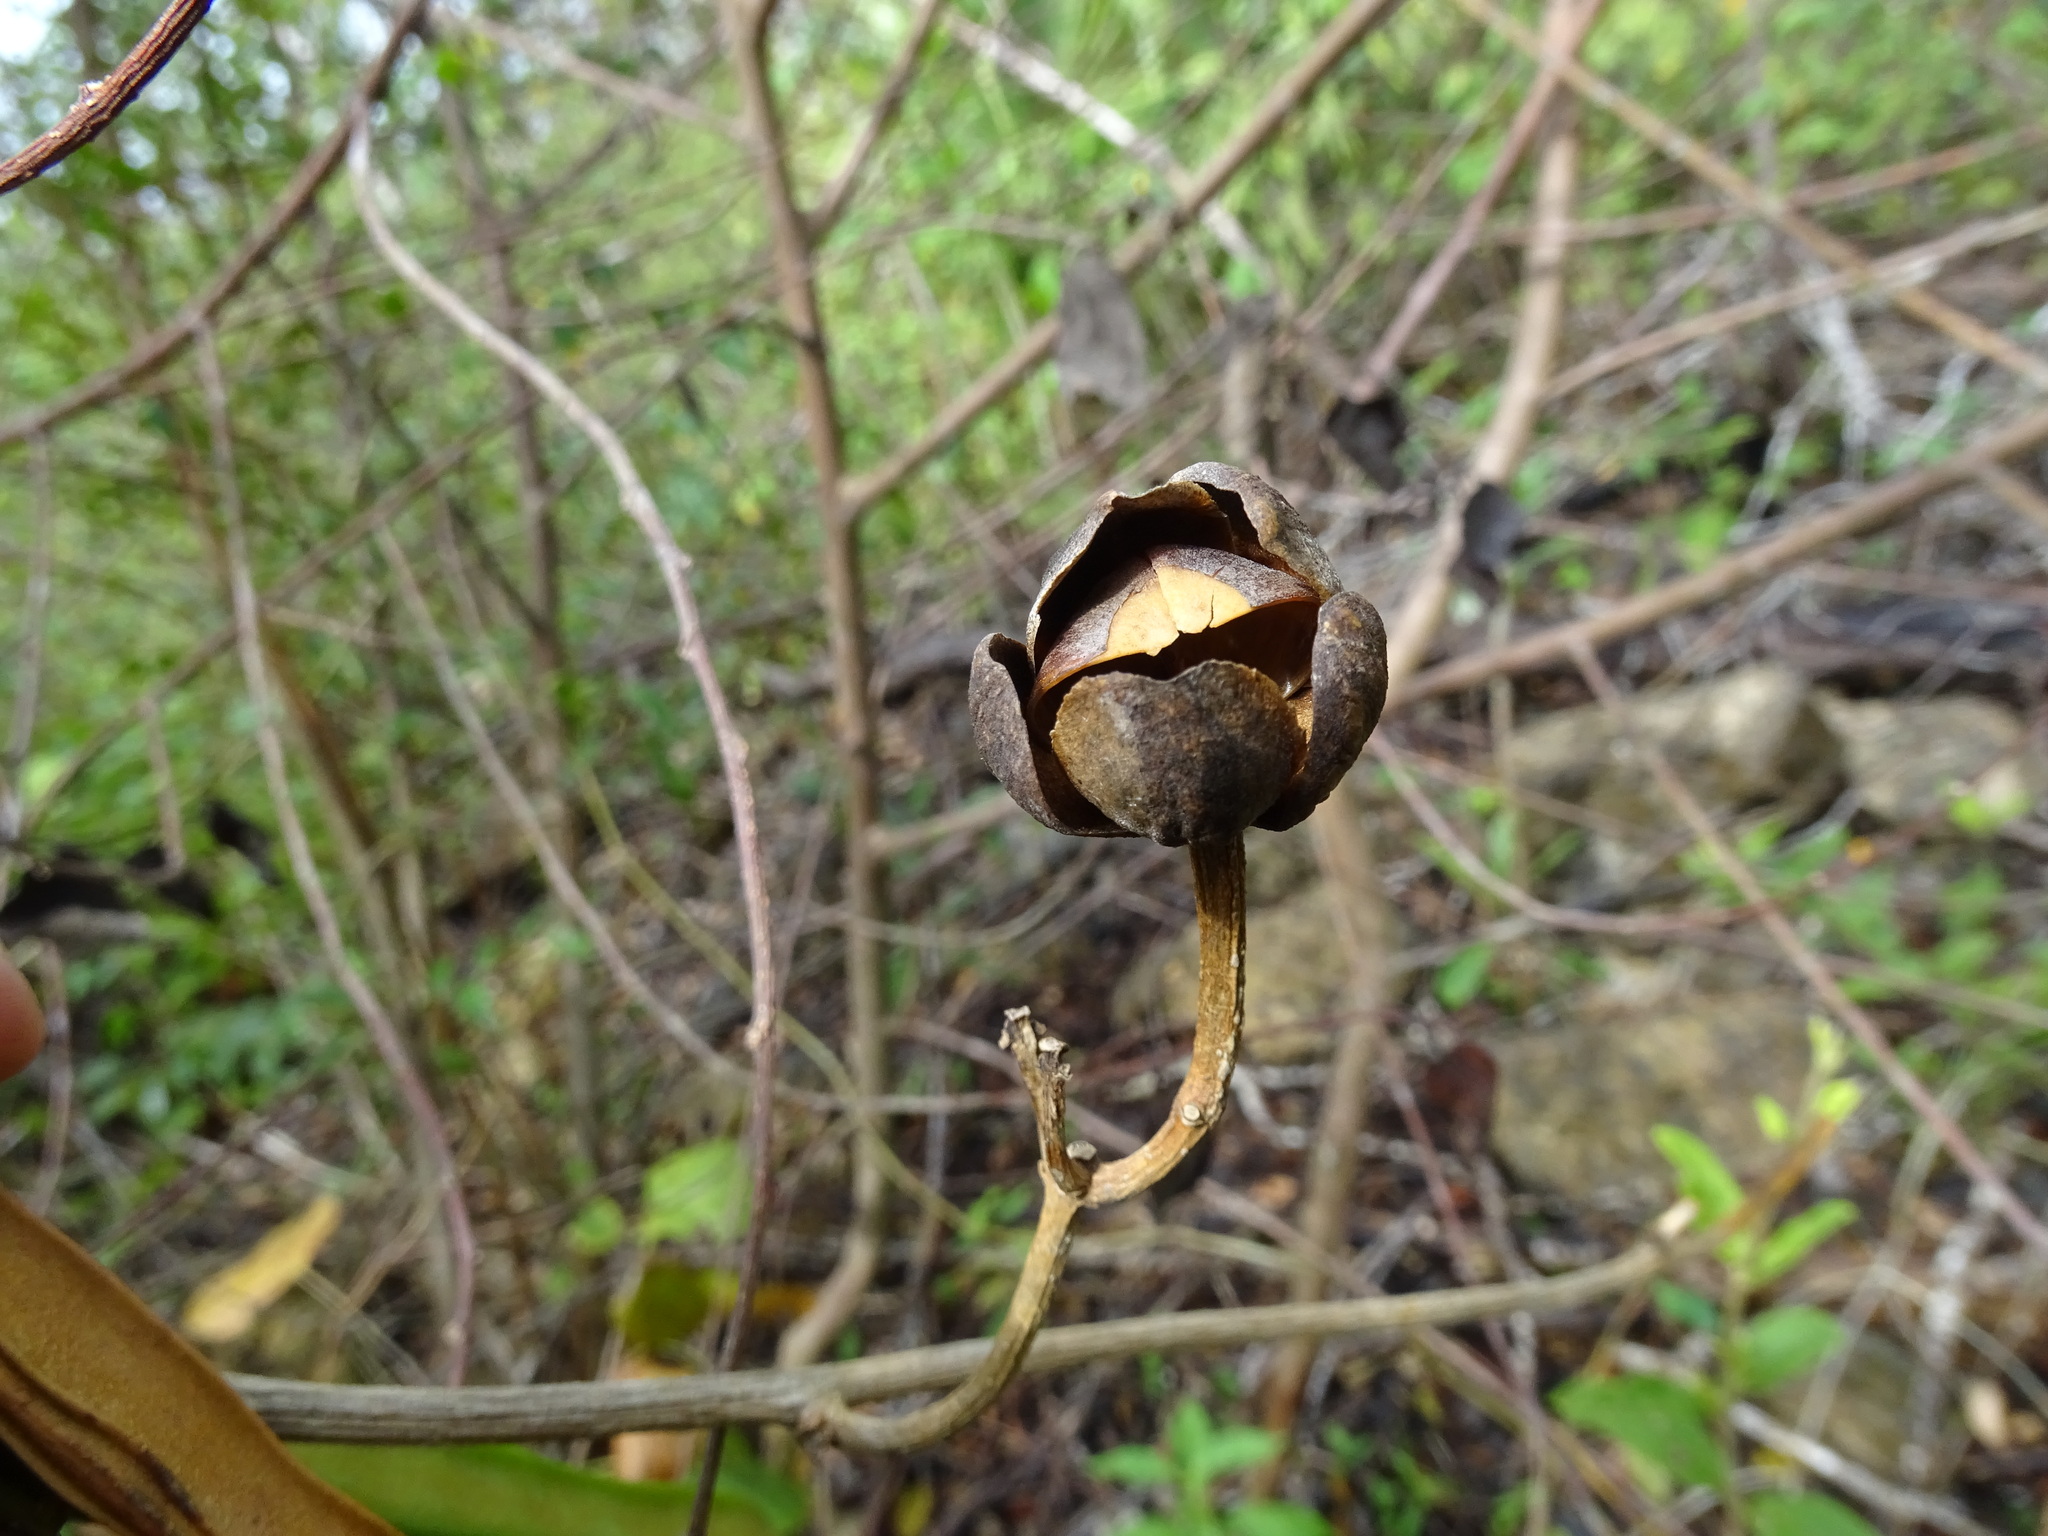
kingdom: Plantae
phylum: Tracheophyta
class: Magnoliopsida
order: Solanales
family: Convolvulaceae
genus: Ipomoea
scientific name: Ipomoea carnea
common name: Morning-glory
